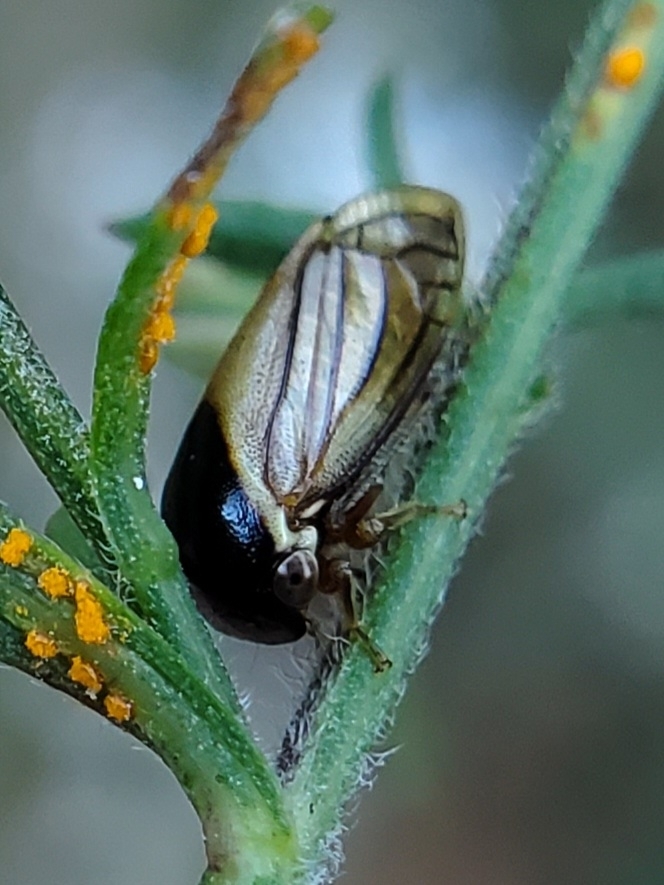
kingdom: Animalia
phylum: Arthropoda
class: Insecta
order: Hemiptera
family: Membracidae
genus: Acutalis
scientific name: Acutalis tartarea
